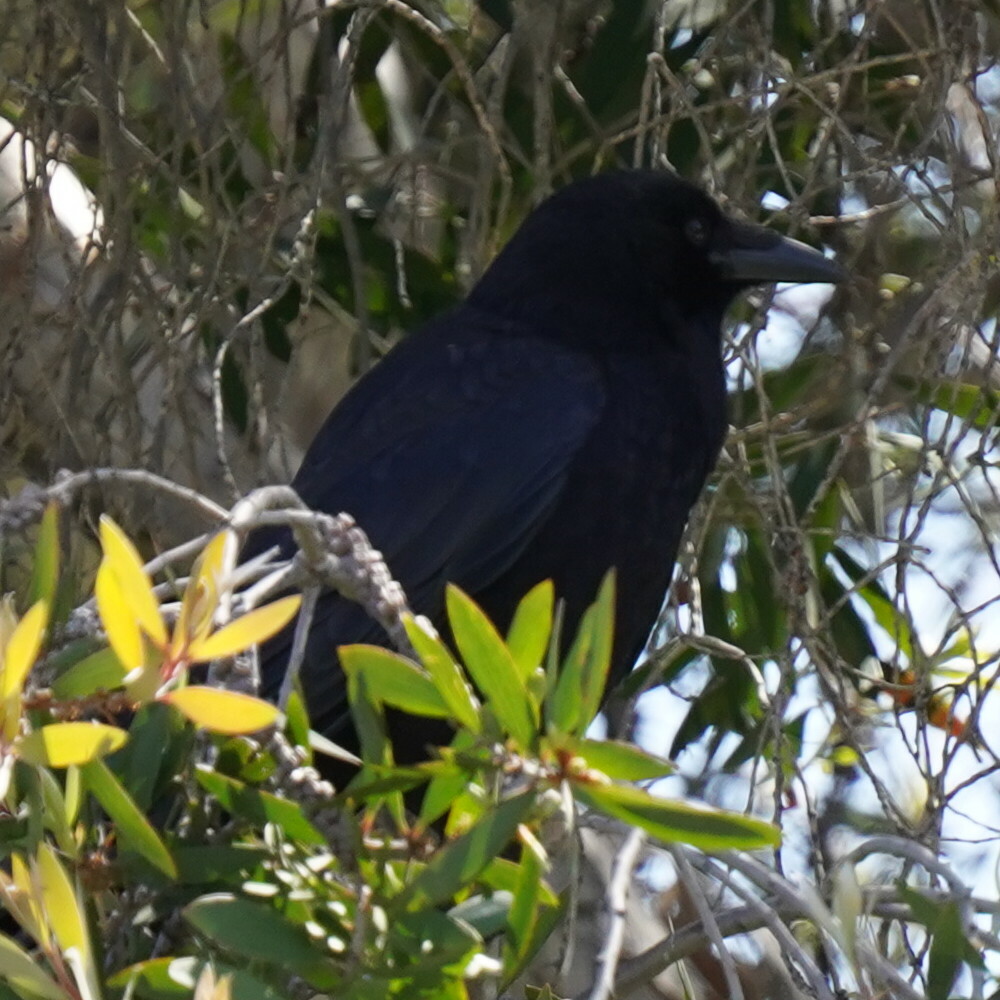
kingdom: Animalia
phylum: Chordata
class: Aves
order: Passeriformes
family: Corvidae
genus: Corvus
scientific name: Corvus brachyrhynchos
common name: American crow
